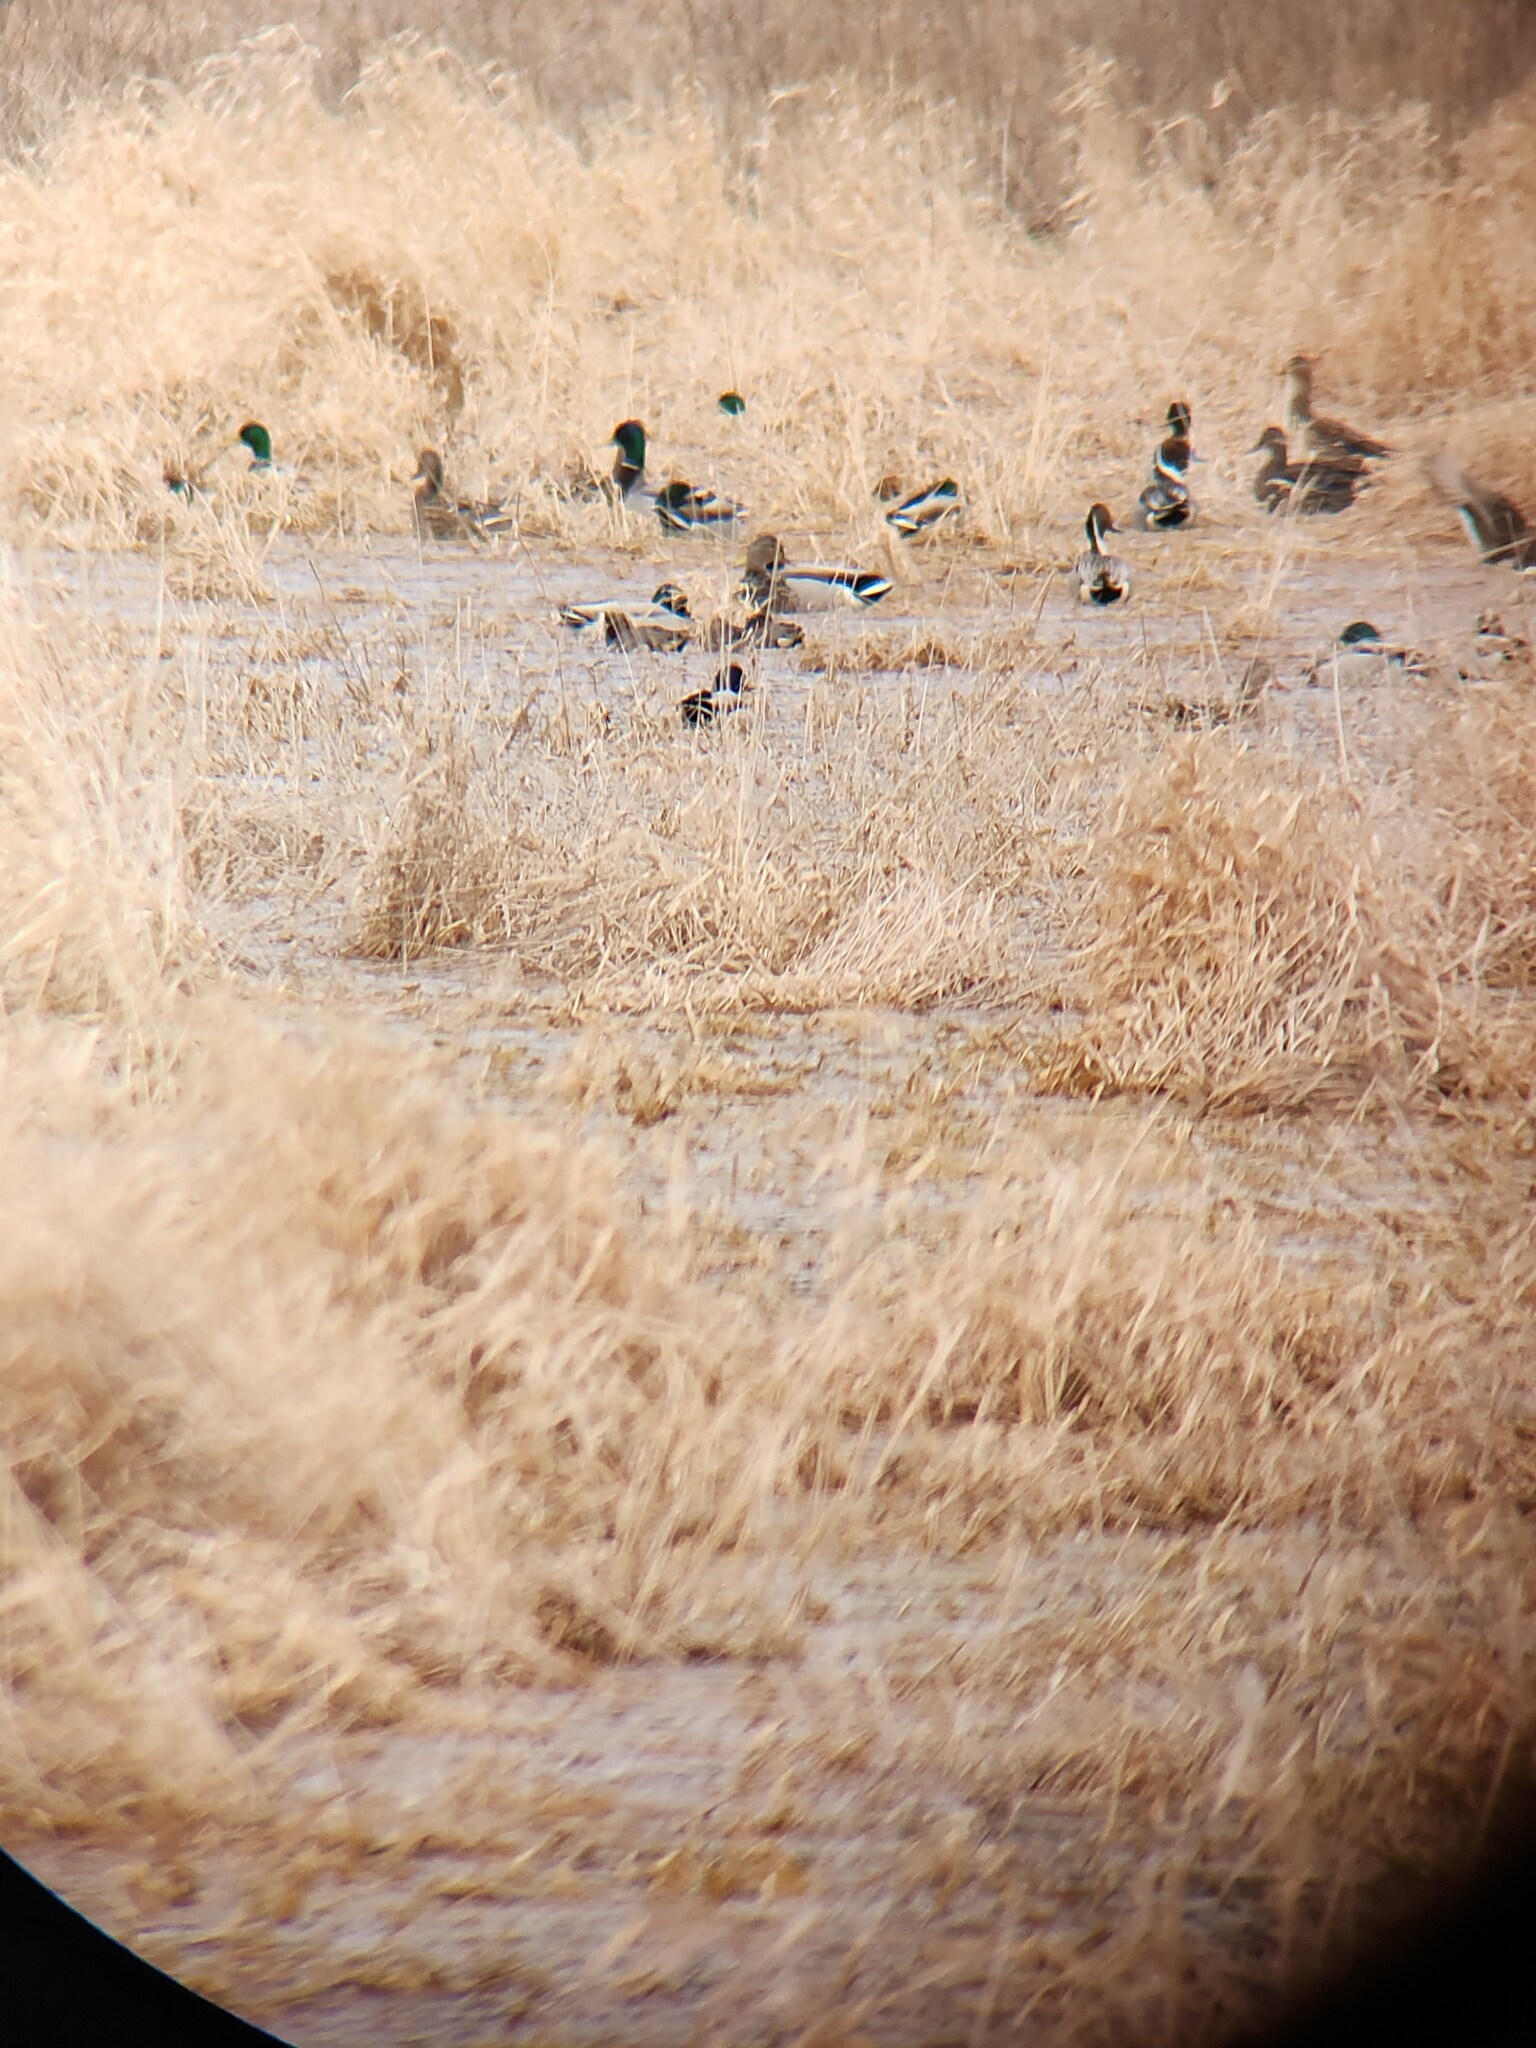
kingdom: Animalia
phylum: Chordata
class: Aves
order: Anseriformes
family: Anatidae
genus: Anas
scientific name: Anas acuta
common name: Northern pintail
